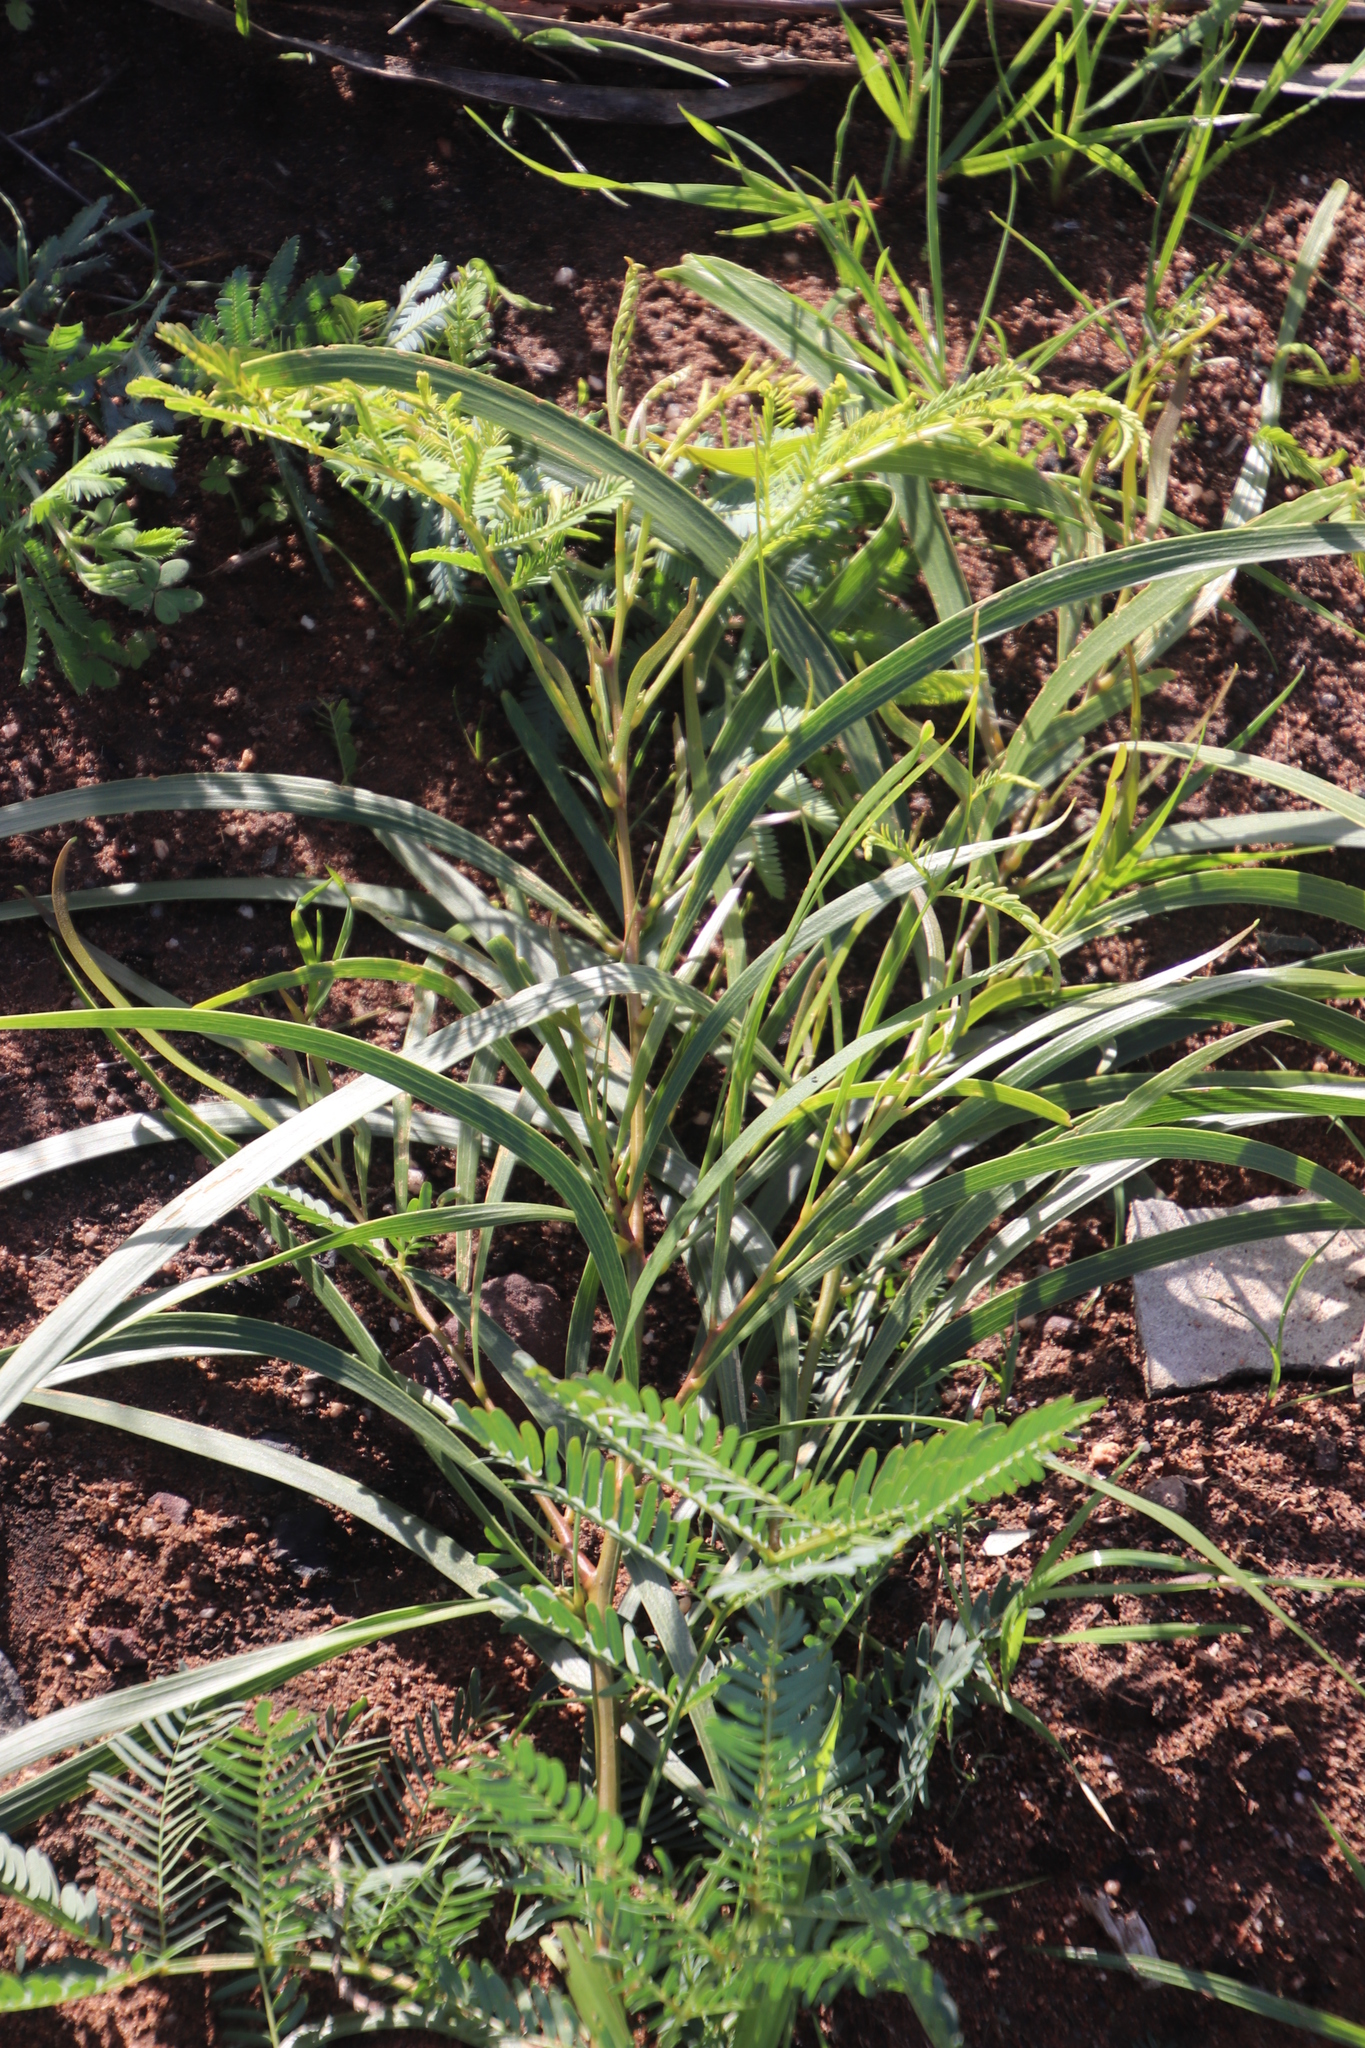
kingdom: Plantae
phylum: Tracheophyta
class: Magnoliopsida
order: Fabales
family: Fabaceae
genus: Acacia
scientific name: Acacia implexa
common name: Black wattle
